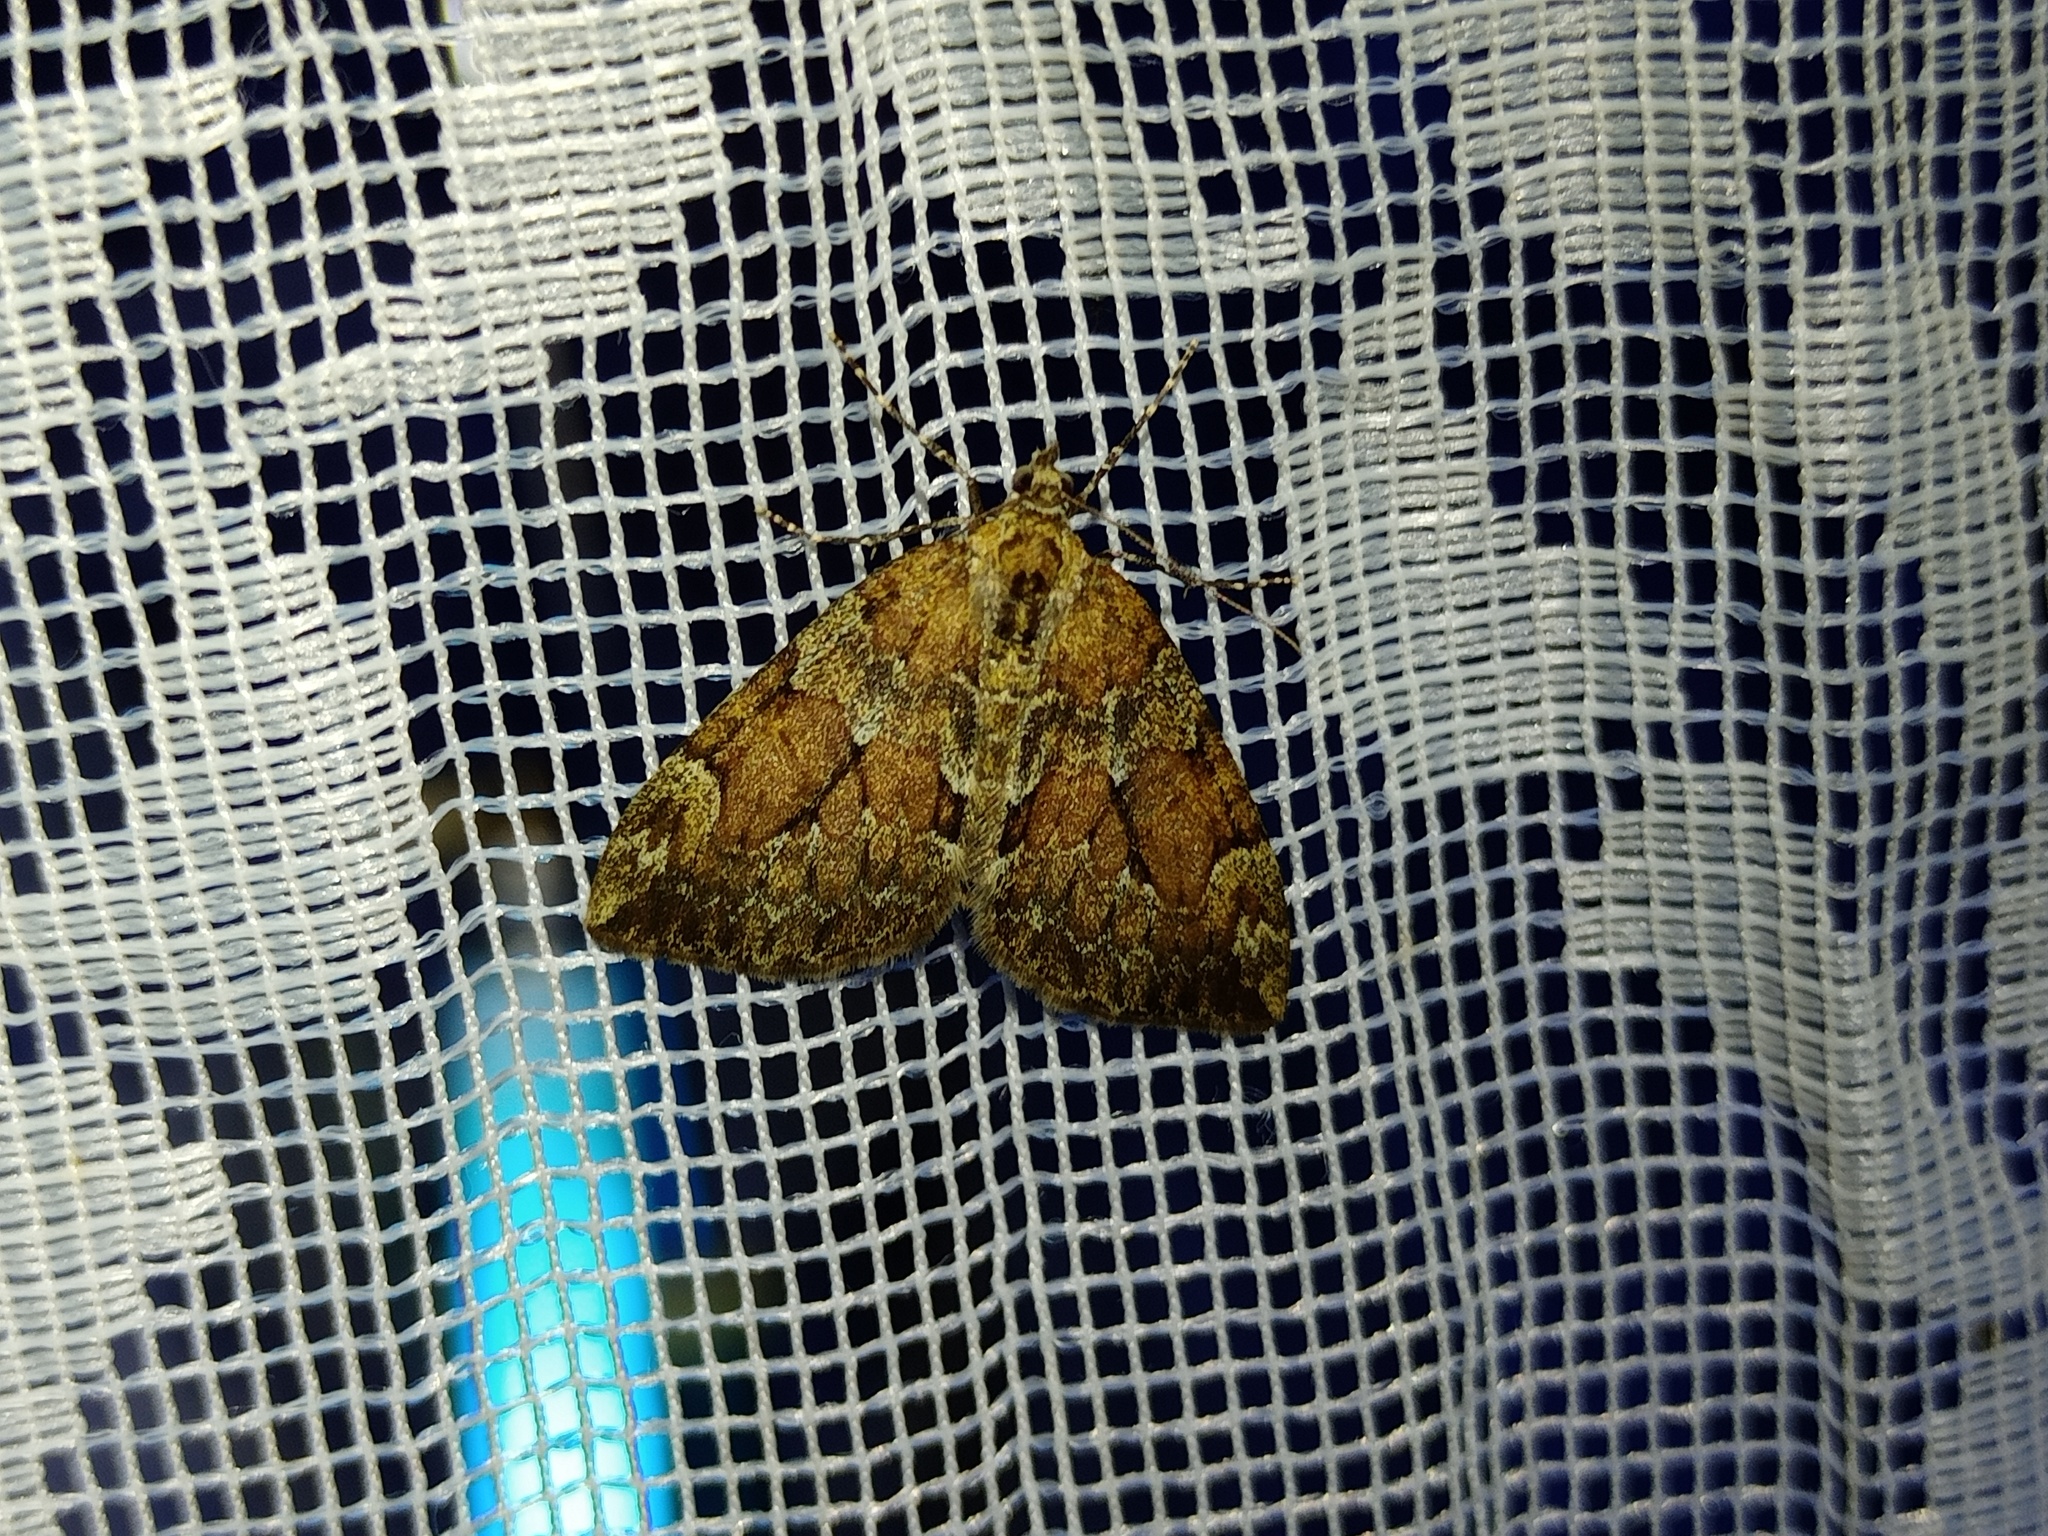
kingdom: Animalia
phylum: Arthropoda
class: Insecta
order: Lepidoptera
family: Geometridae
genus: Thera
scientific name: Thera obeliscata
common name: Grey pine carpet
